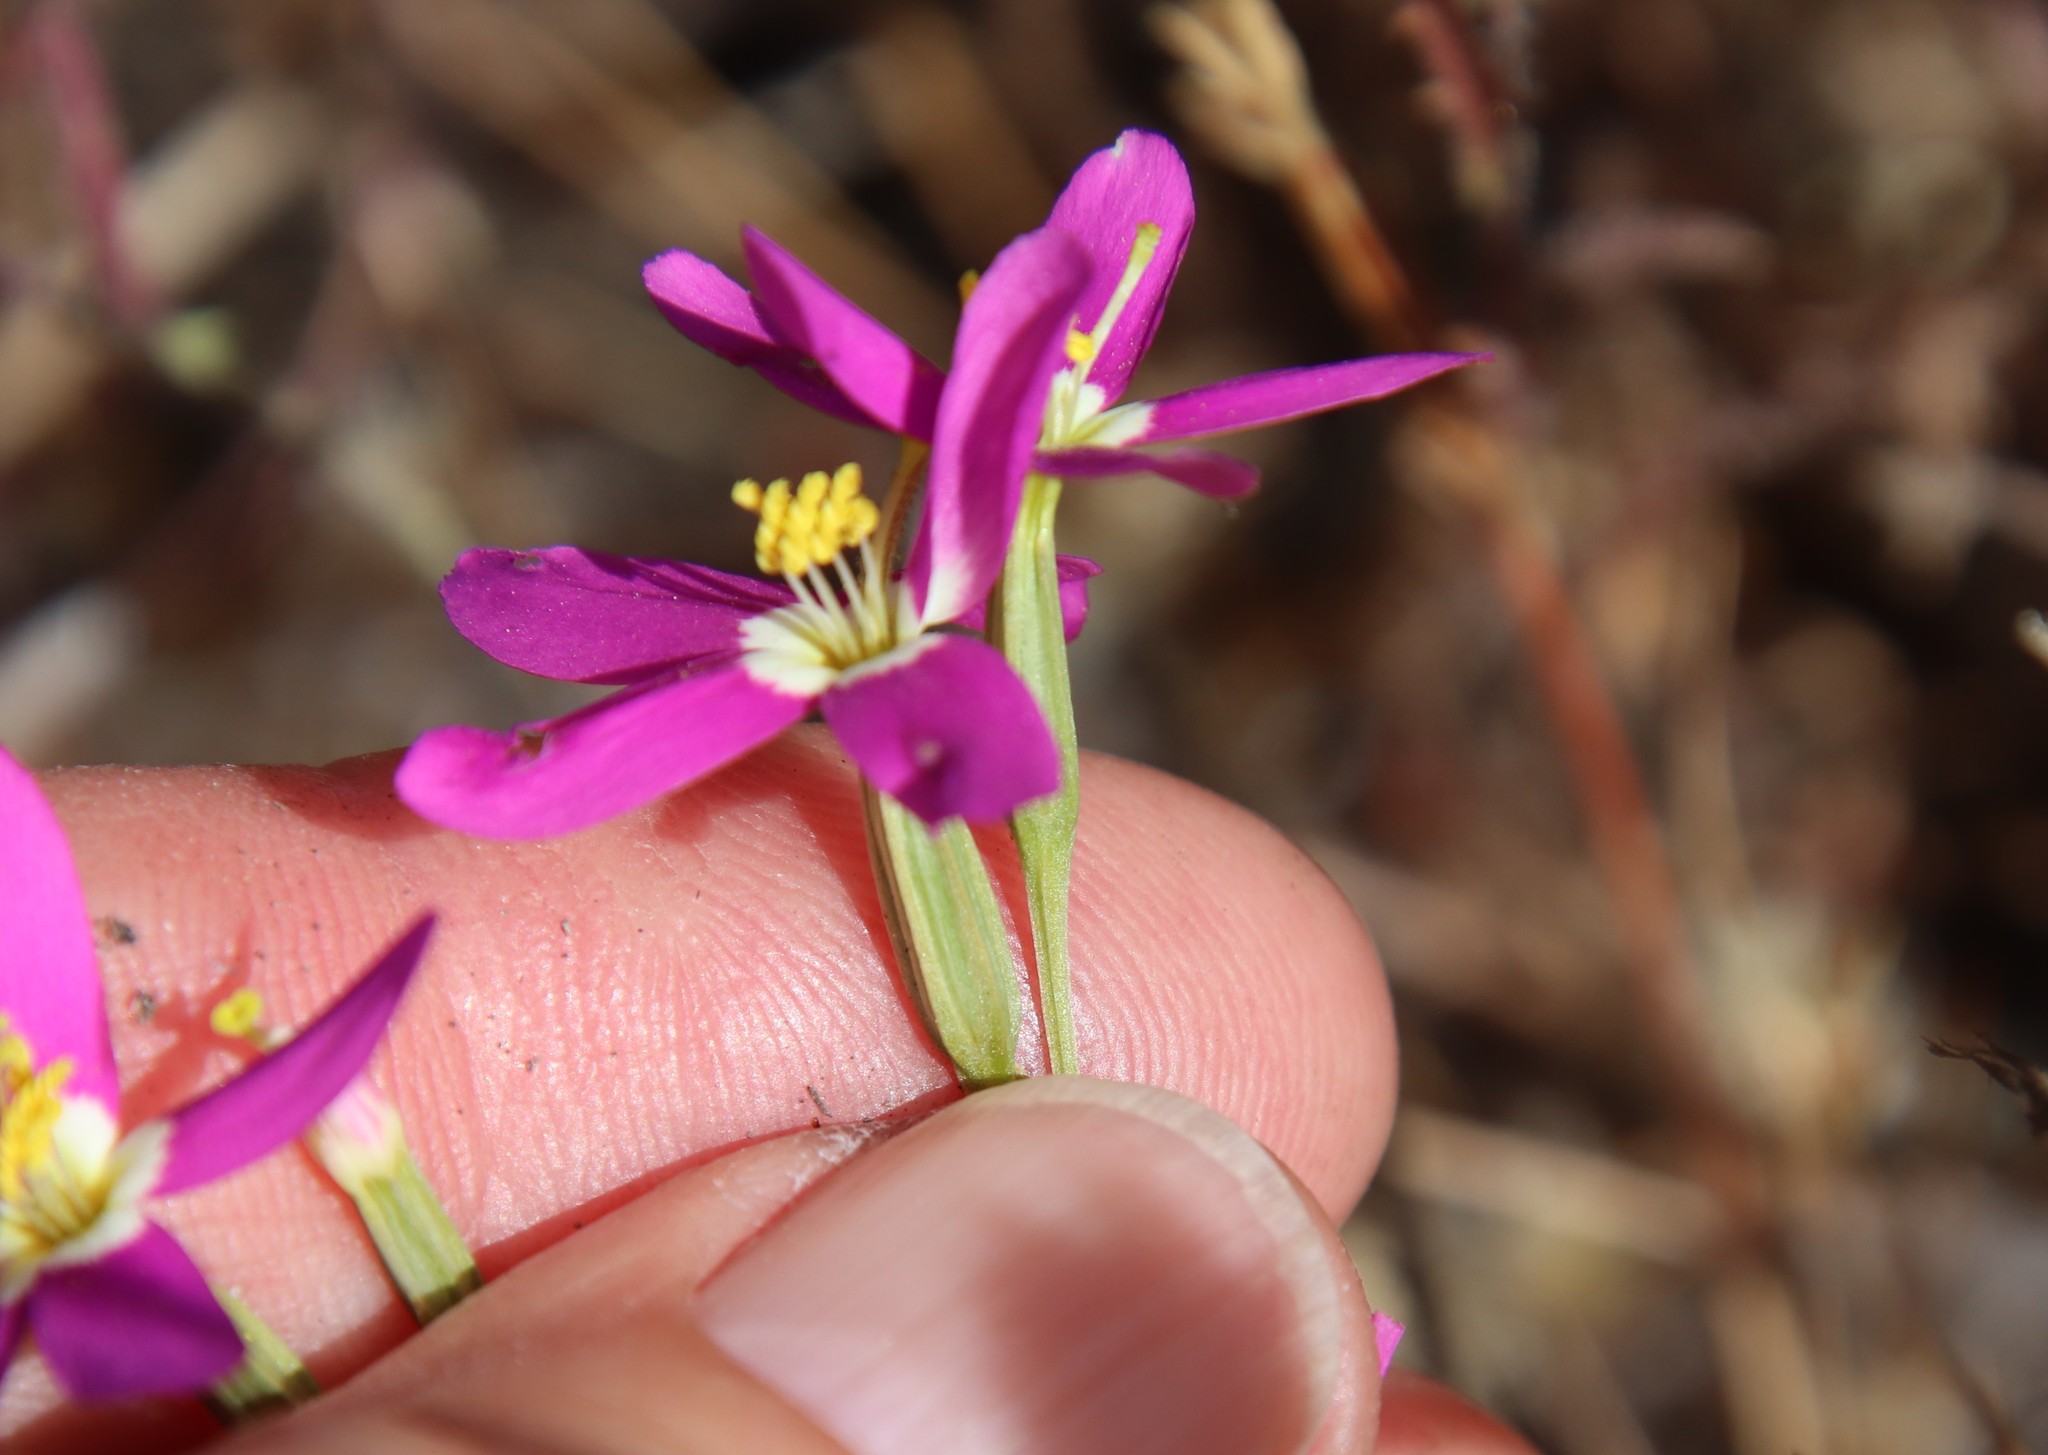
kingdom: Plantae
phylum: Tracheophyta
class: Magnoliopsida
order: Gentianales
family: Gentianaceae
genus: Zeltnera
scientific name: Zeltnera venusta
